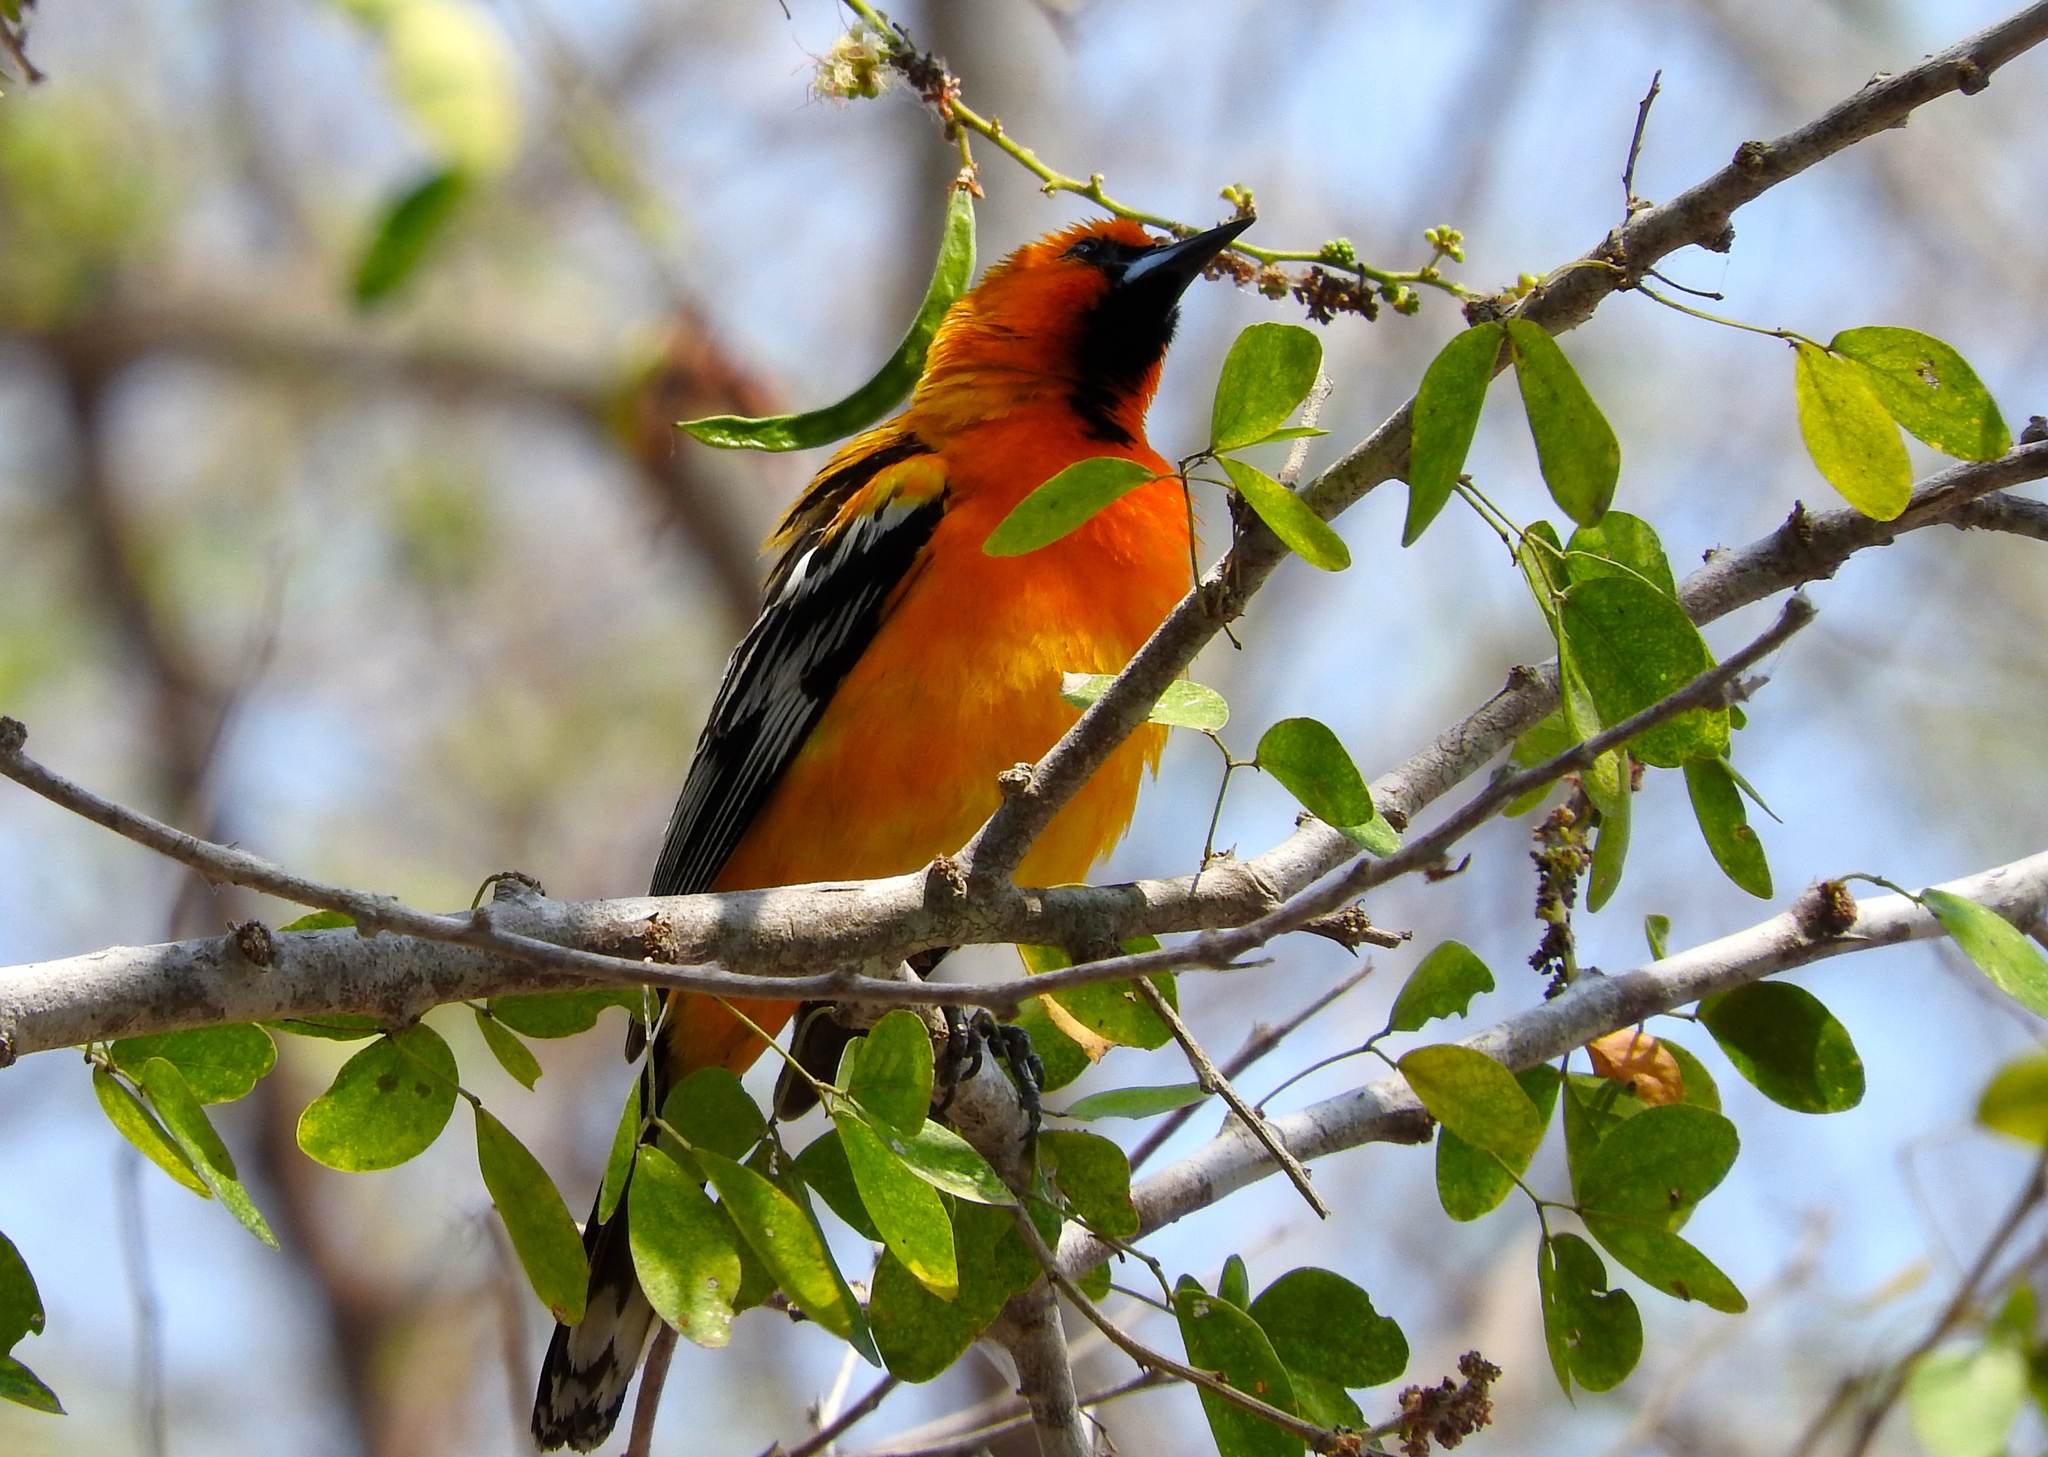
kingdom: Animalia
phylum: Chordata
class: Aves
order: Passeriformes
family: Icteridae
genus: Icterus
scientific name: Icterus pustulatus
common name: Streak-backed oriole
